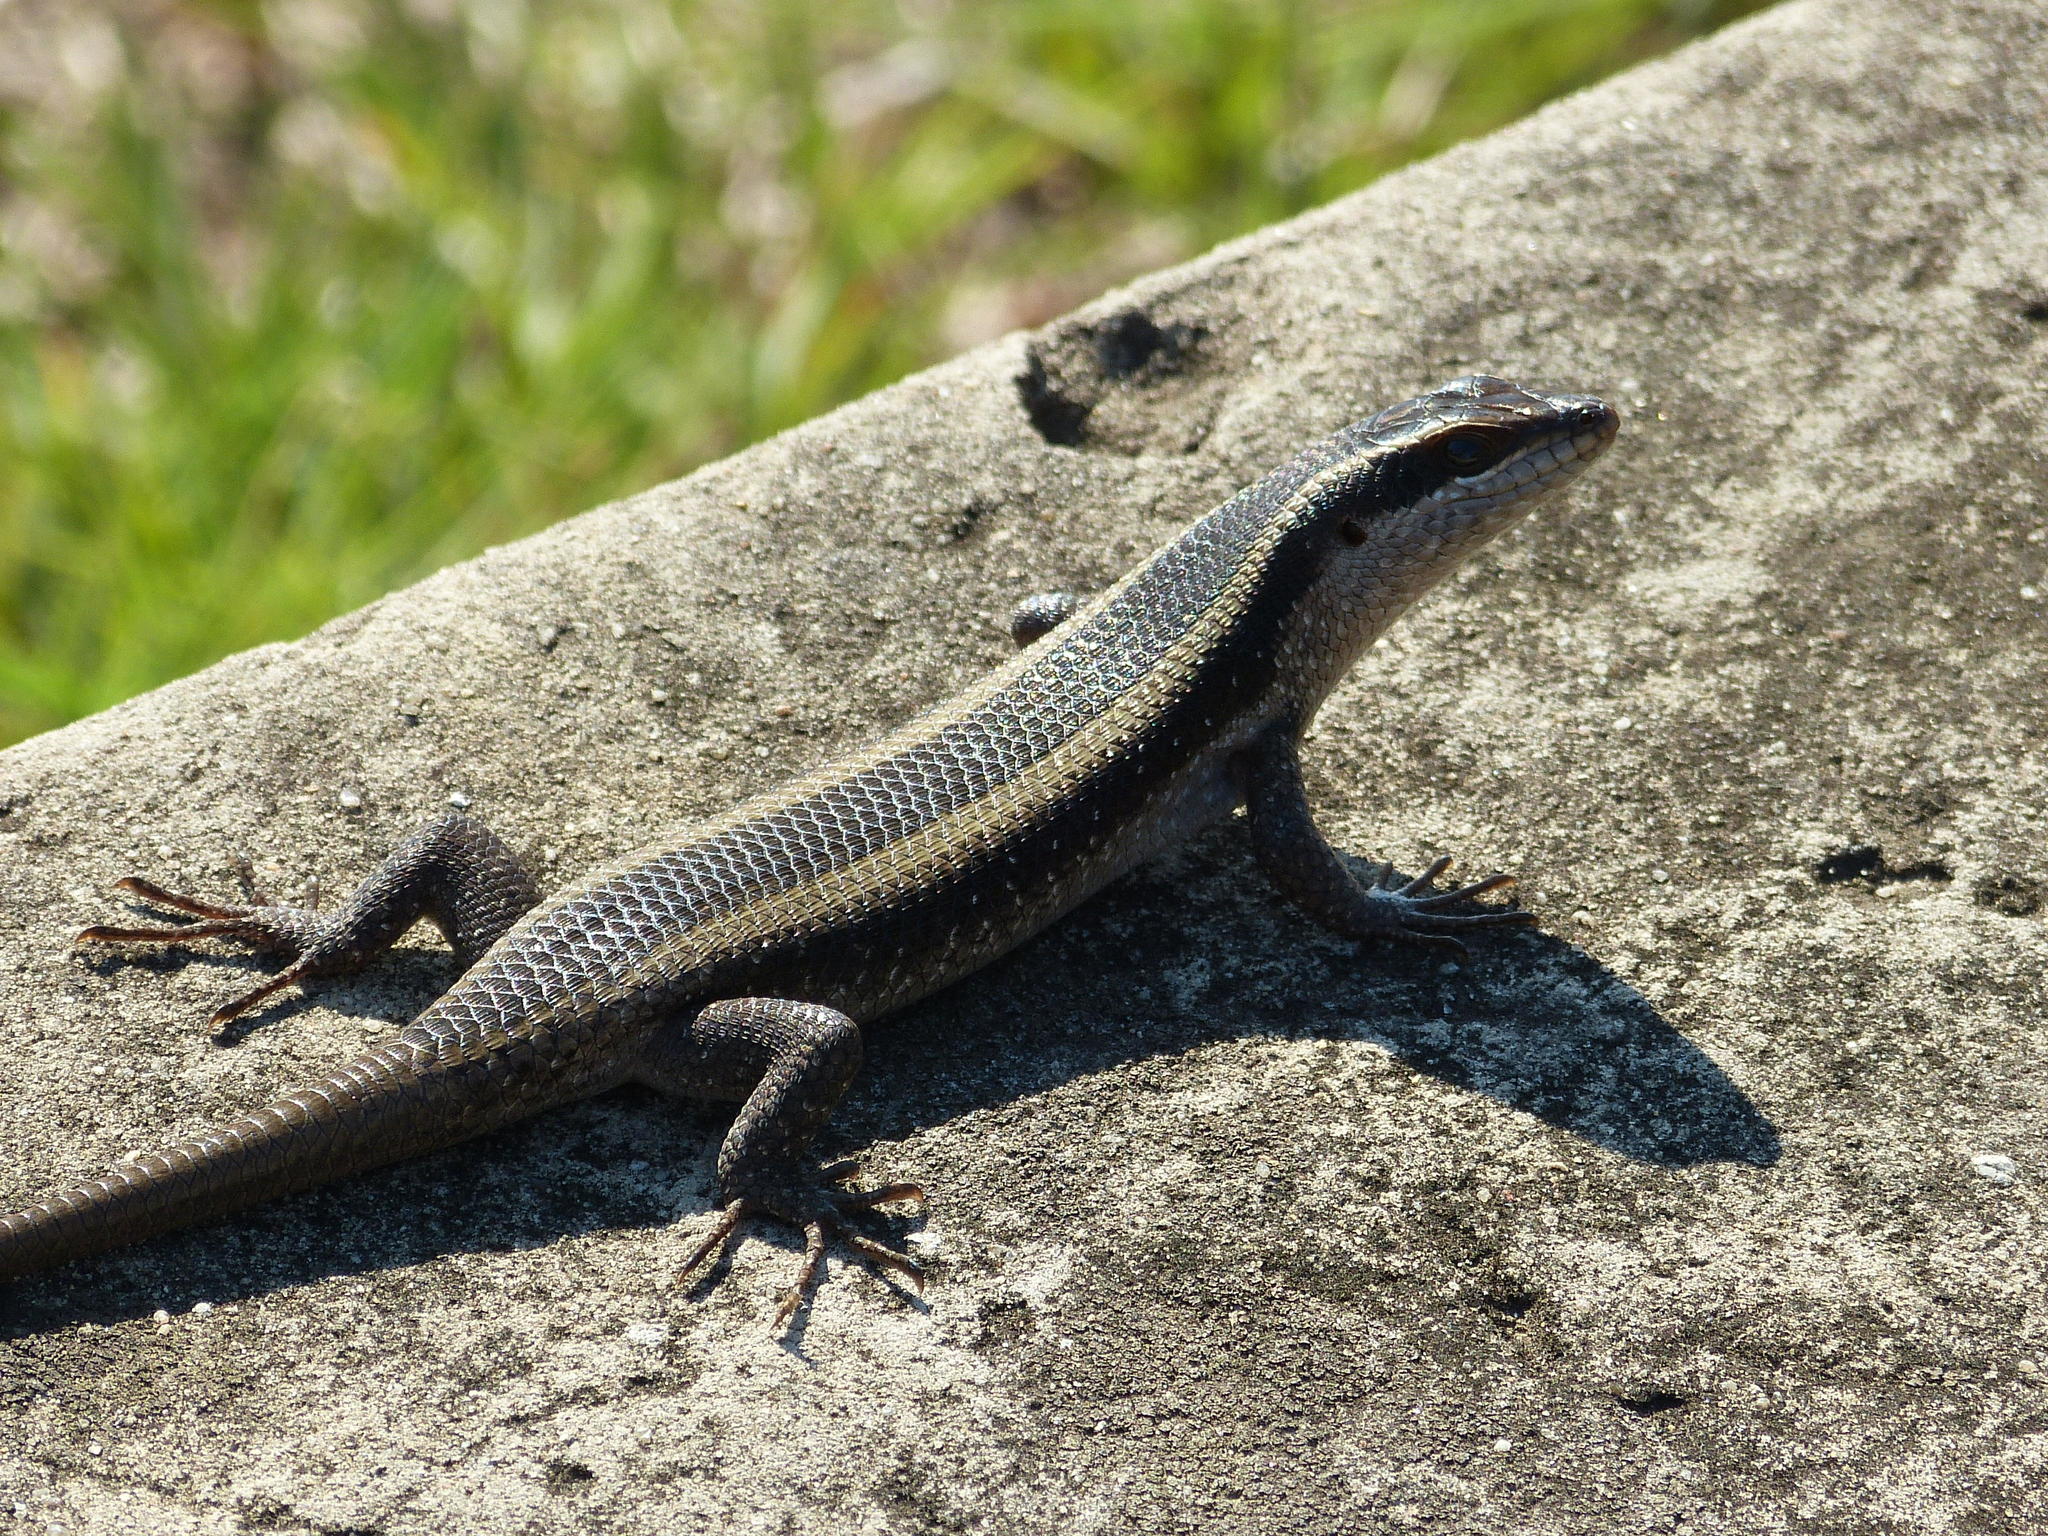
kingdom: Animalia
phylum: Chordata
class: Squamata
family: Scincidae
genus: Trachylepis
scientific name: Trachylepis striata
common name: African striped mabuya
